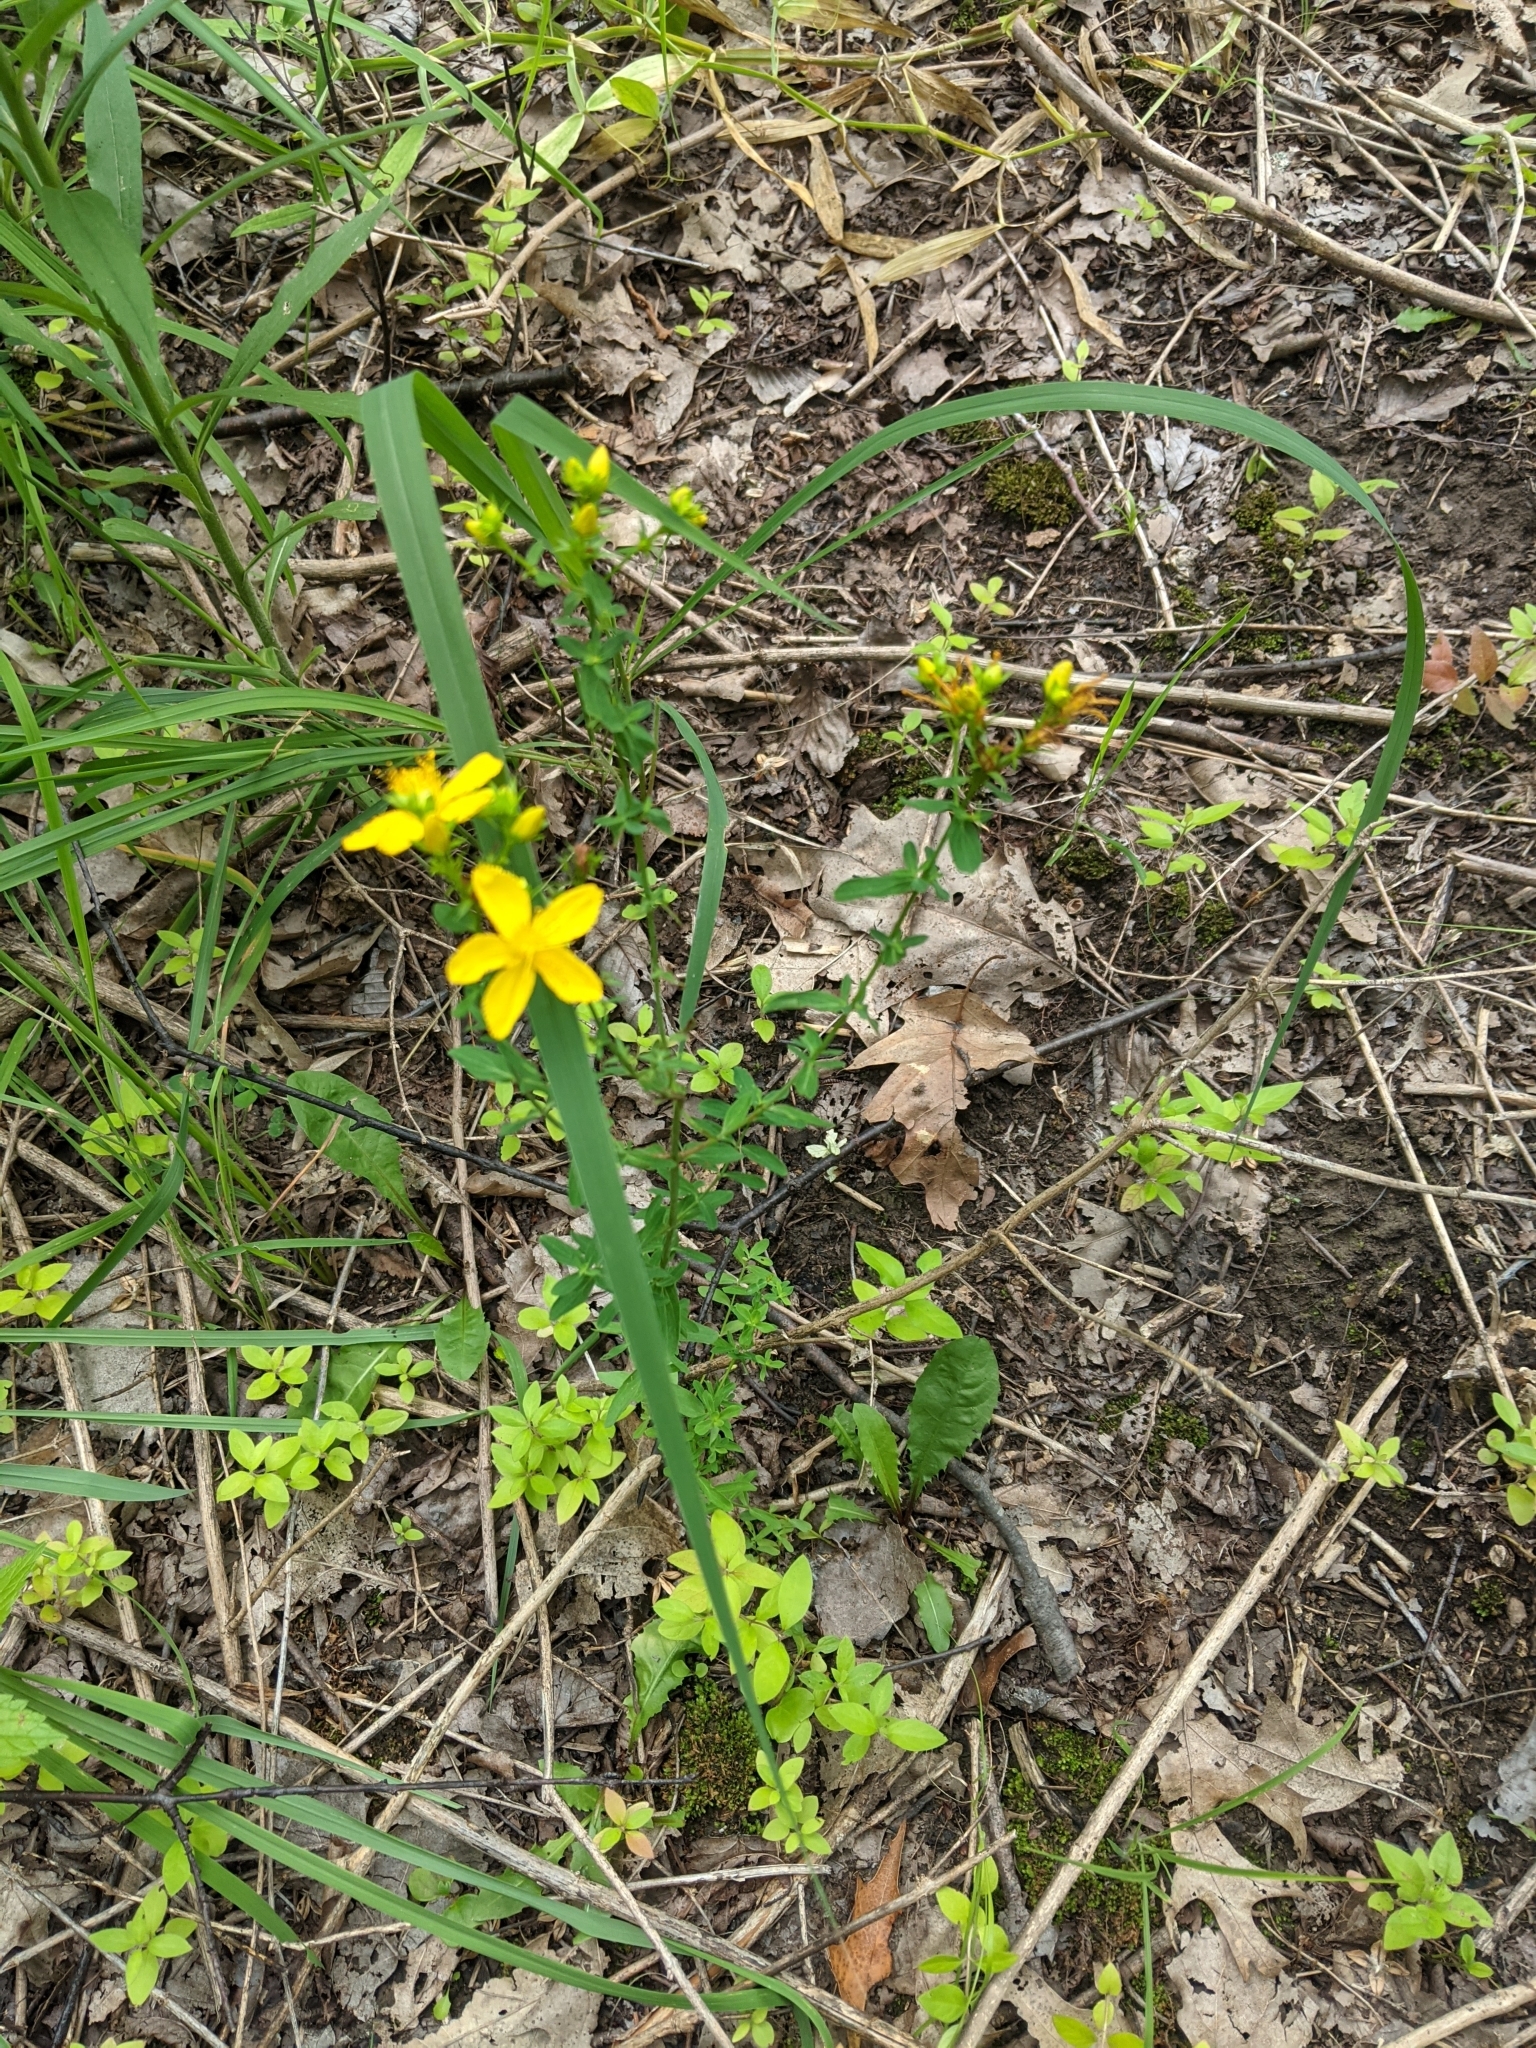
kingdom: Plantae
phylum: Tracheophyta
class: Magnoliopsida
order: Malpighiales
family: Hypericaceae
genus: Hypericum
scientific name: Hypericum perforatum
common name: Common st. johnswort
